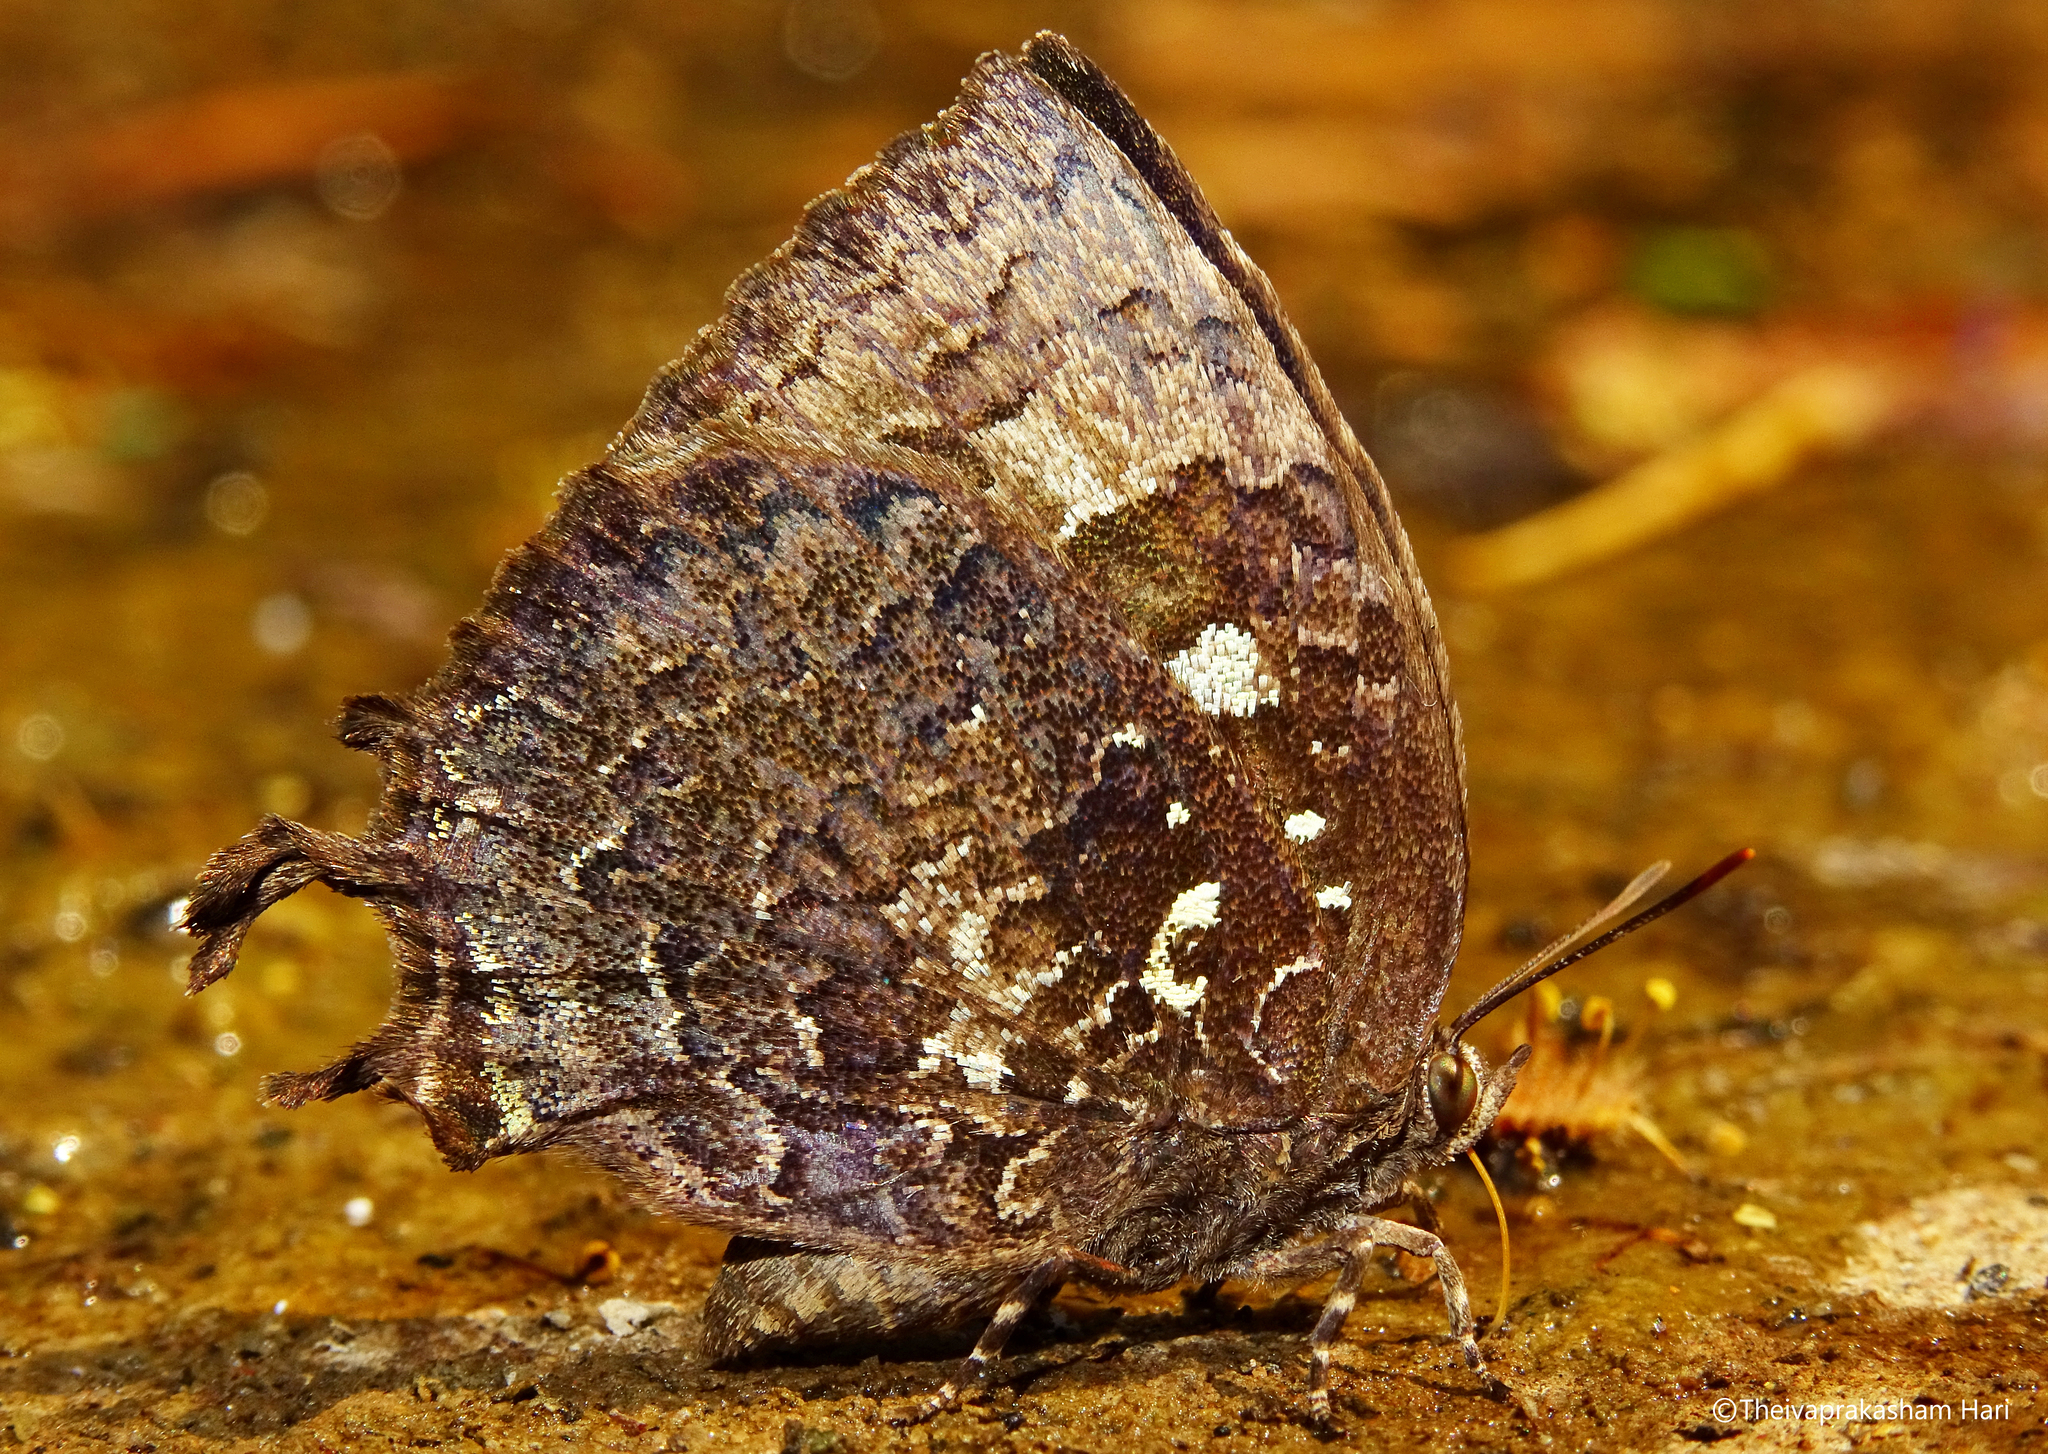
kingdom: Animalia
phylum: Arthropoda
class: Insecta
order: Lepidoptera
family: Lycaenidae
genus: Thaduka
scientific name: Thaduka multicaudata
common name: Many-tailed oakblue
